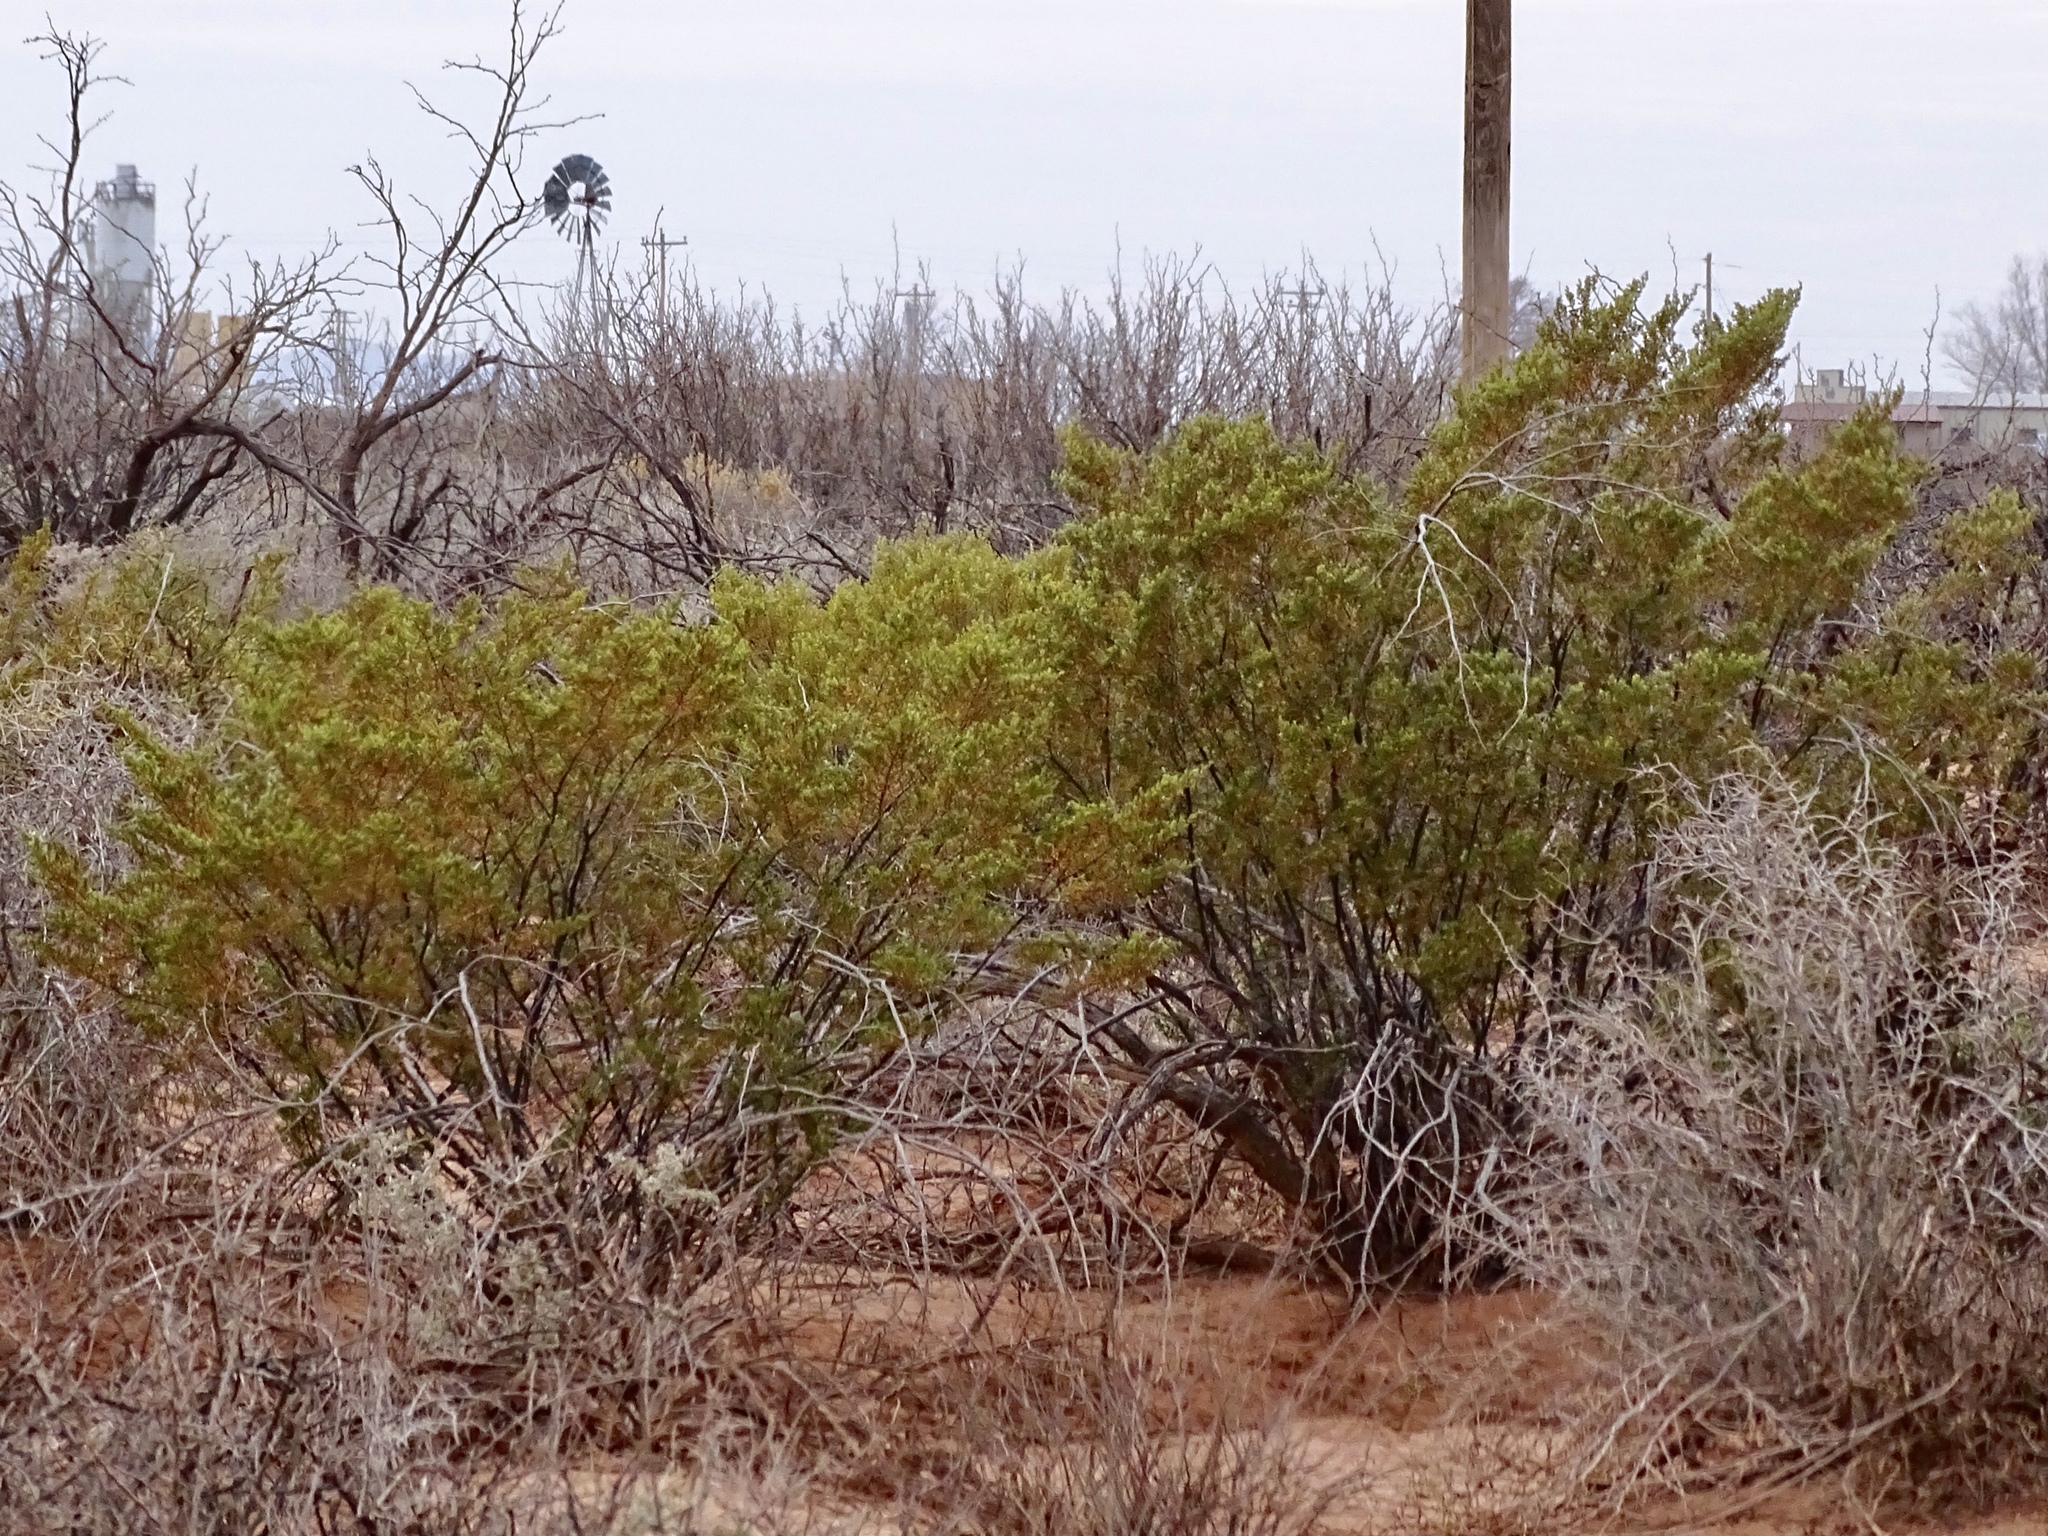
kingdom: Plantae
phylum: Tracheophyta
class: Magnoliopsida
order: Zygophyllales
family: Zygophyllaceae
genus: Larrea
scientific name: Larrea tridentata
